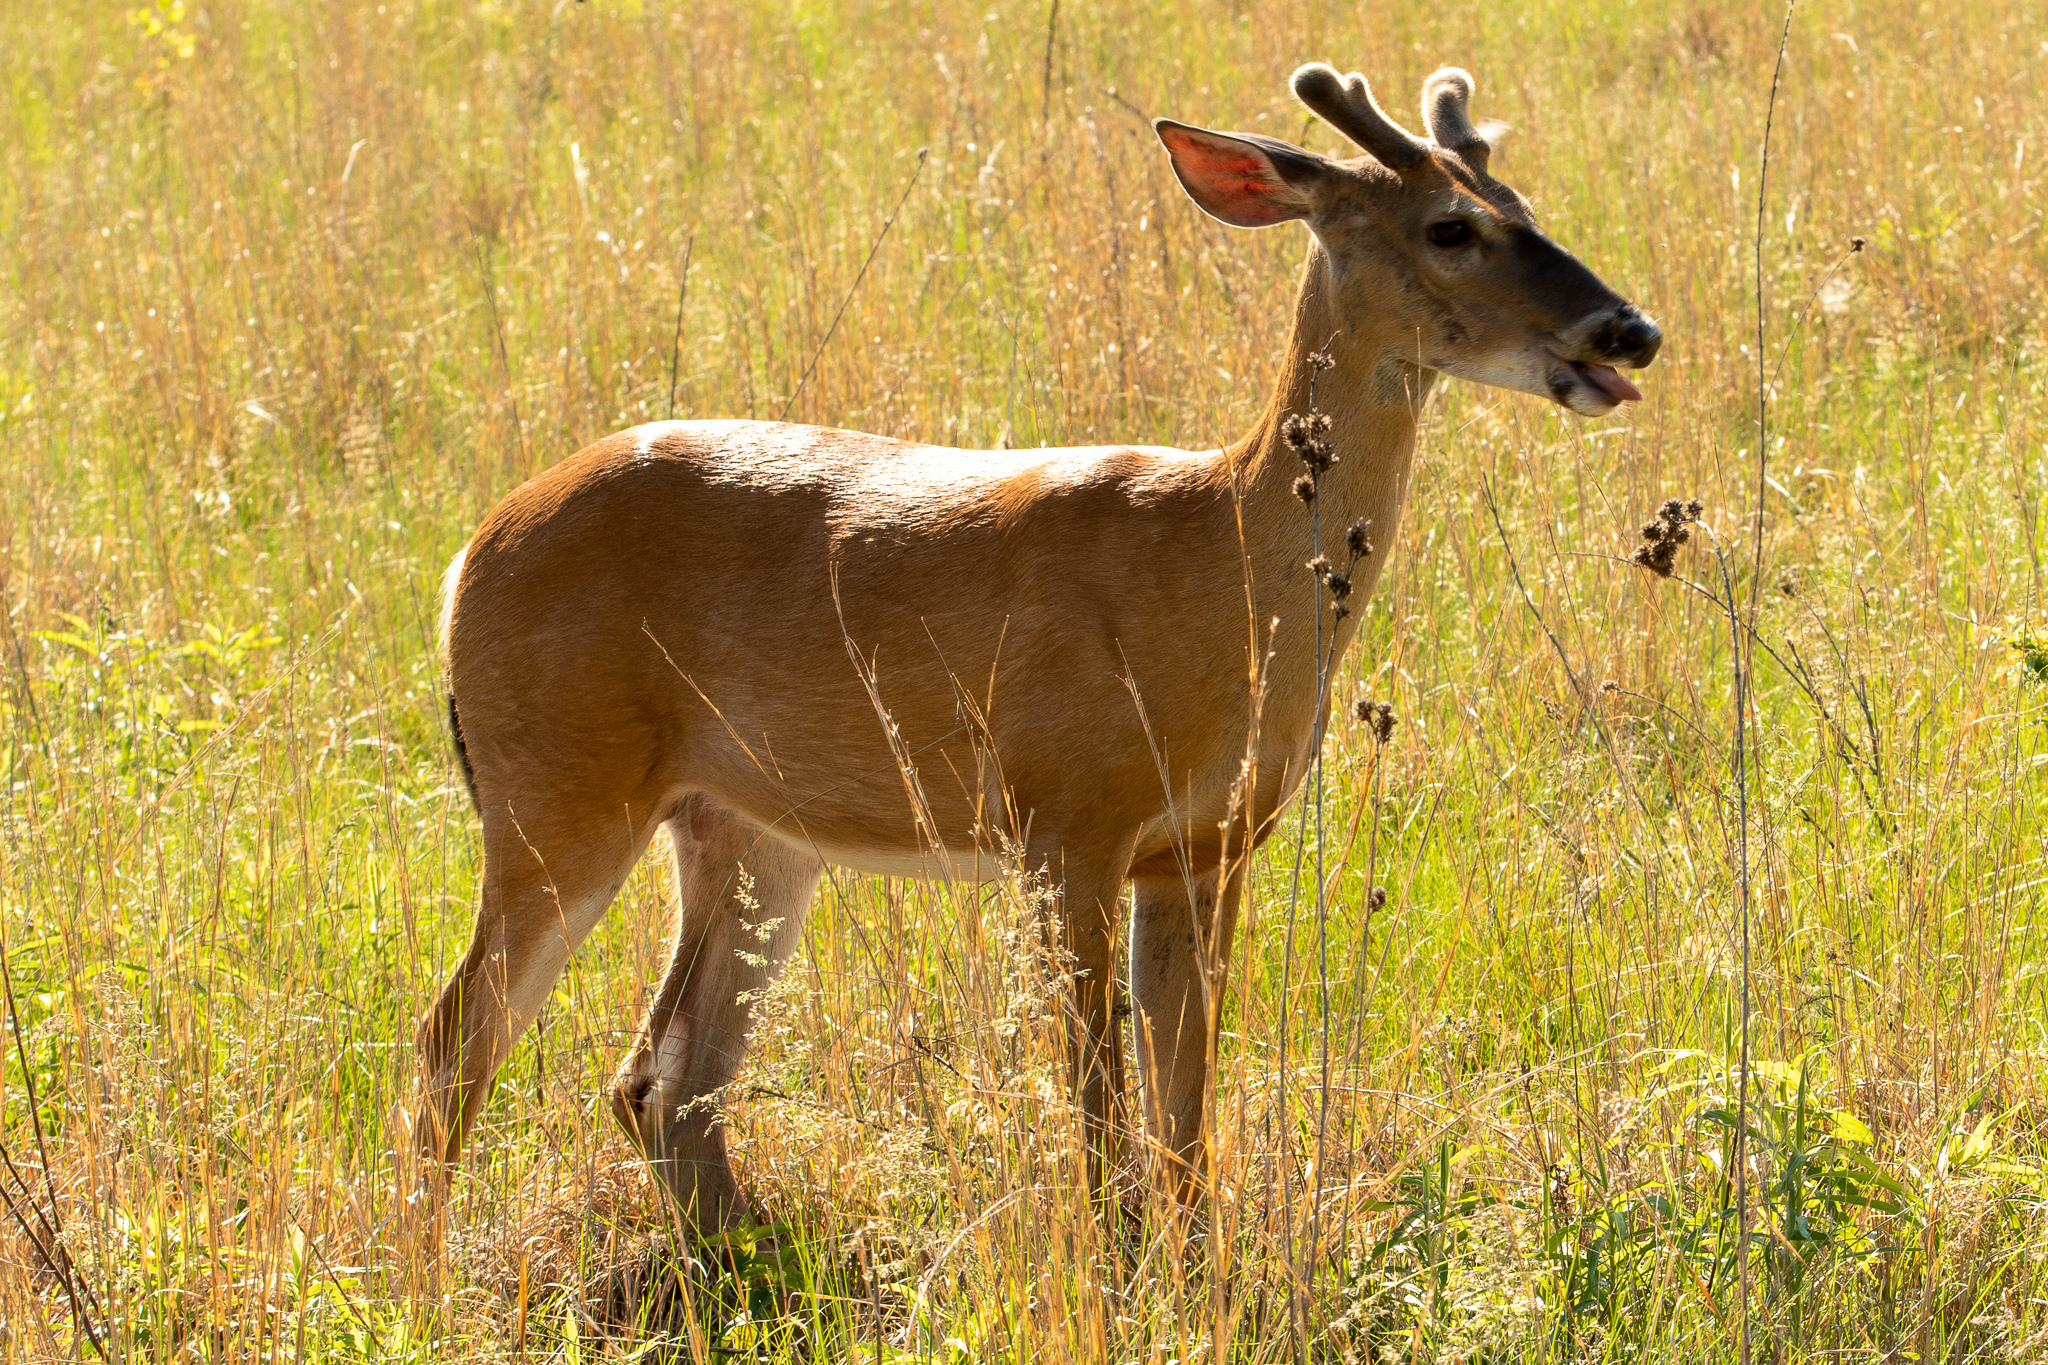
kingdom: Animalia
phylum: Chordata
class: Mammalia
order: Artiodactyla
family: Cervidae
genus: Odocoileus
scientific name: Odocoileus virginianus
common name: White-tailed deer
